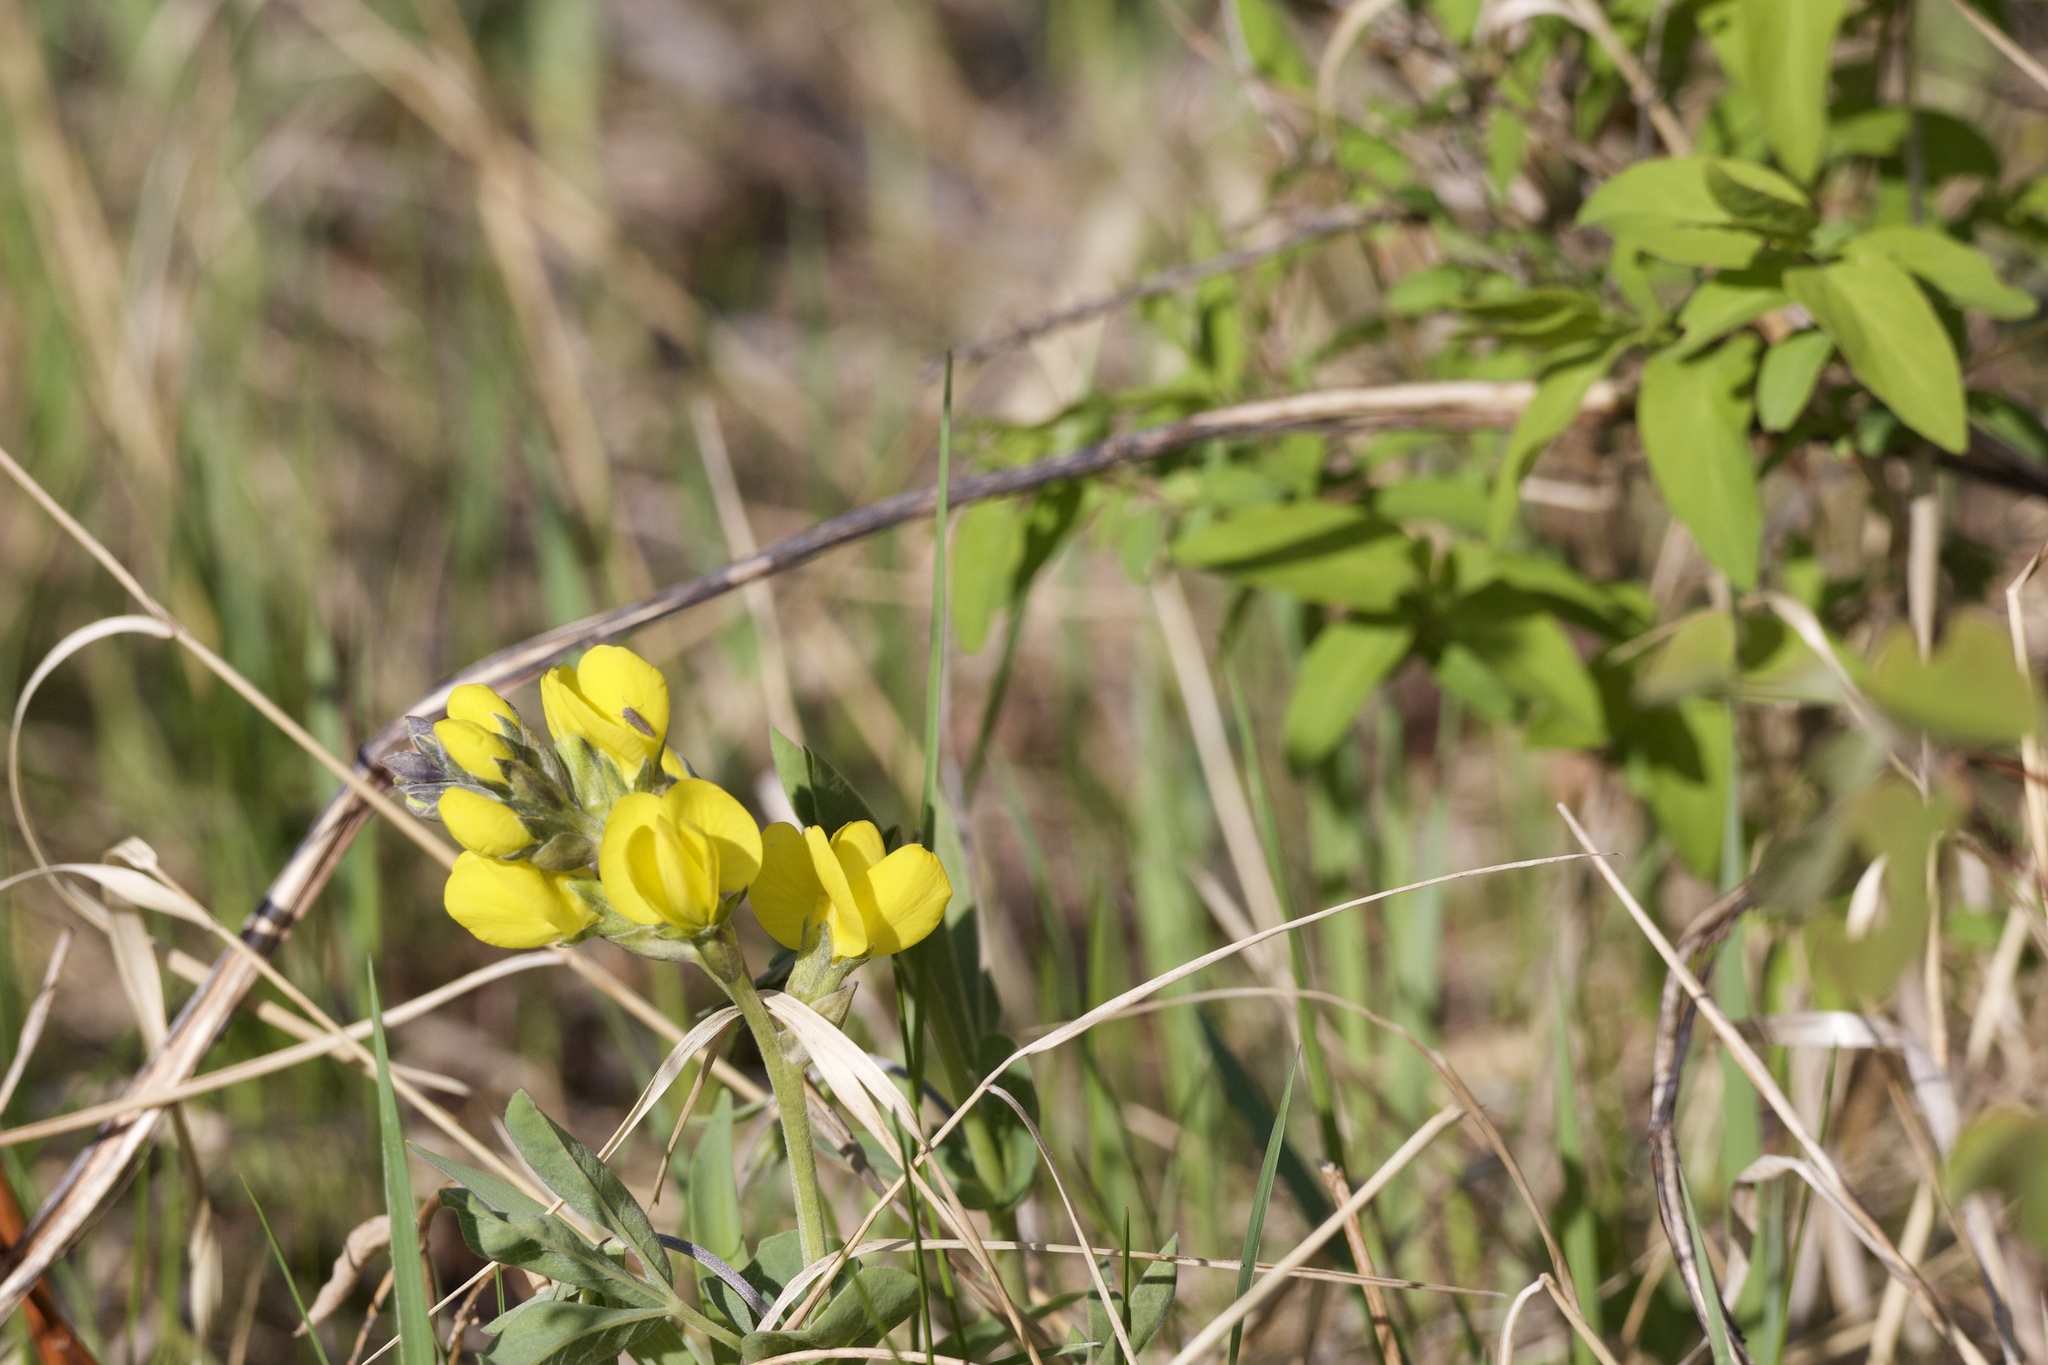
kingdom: Plantae
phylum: Tracheophyta
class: Magnoliopsida
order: Fabales
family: Fabaceae
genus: Thermopsis
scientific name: Thermopsis rhombifolia
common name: Circle-pod-pea
